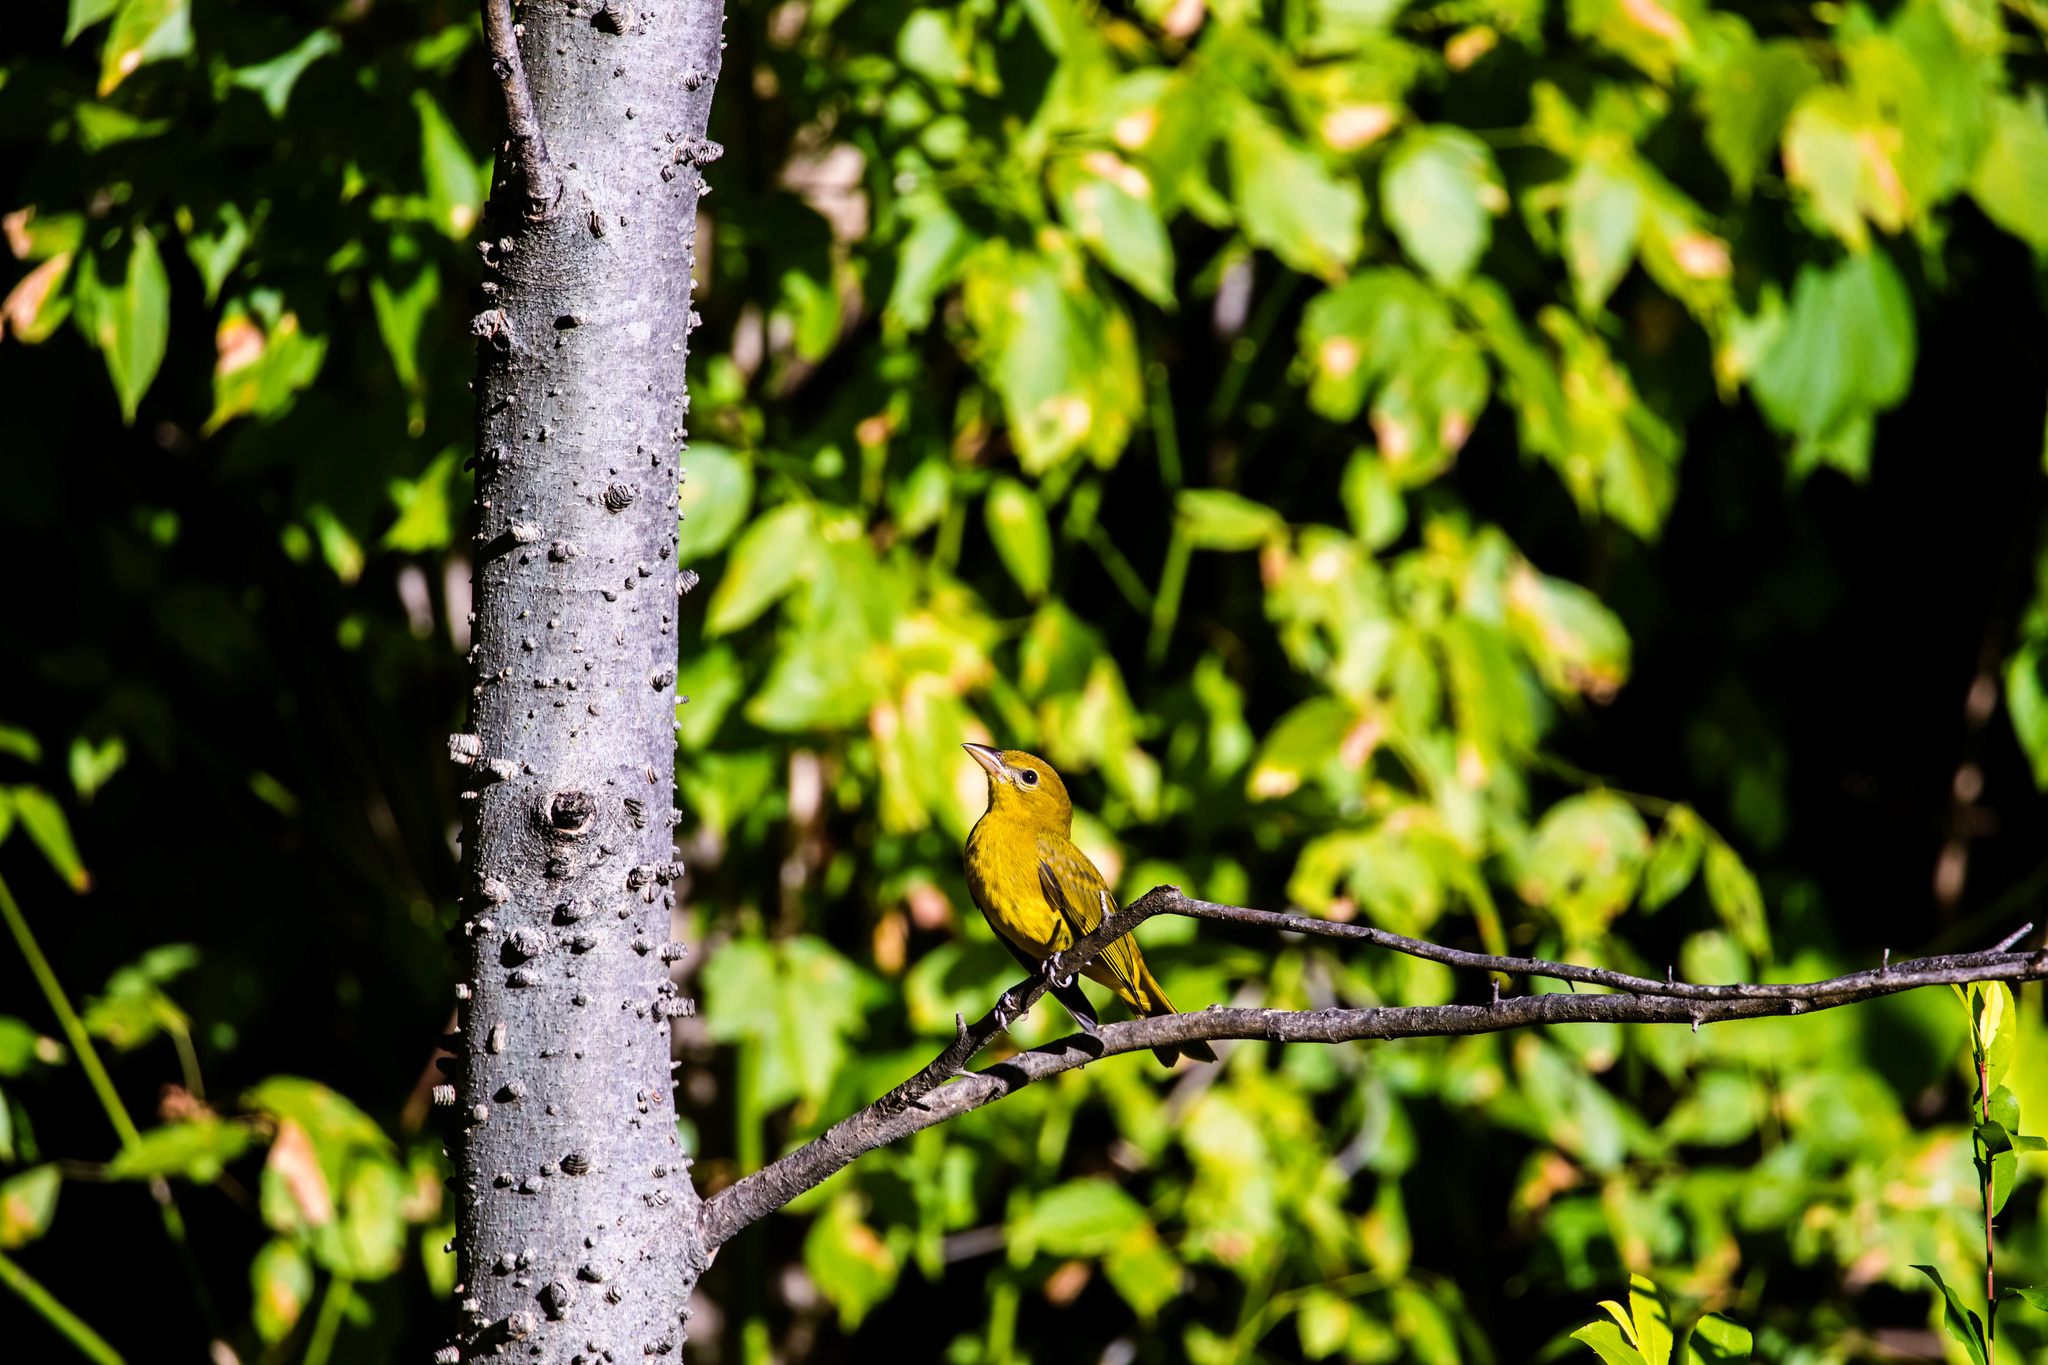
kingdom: Animalia
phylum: Chordata
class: Aves
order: Passeriformes
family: Cardinalidae
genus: Piranga
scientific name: Piranga rubra
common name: Summer tanager
